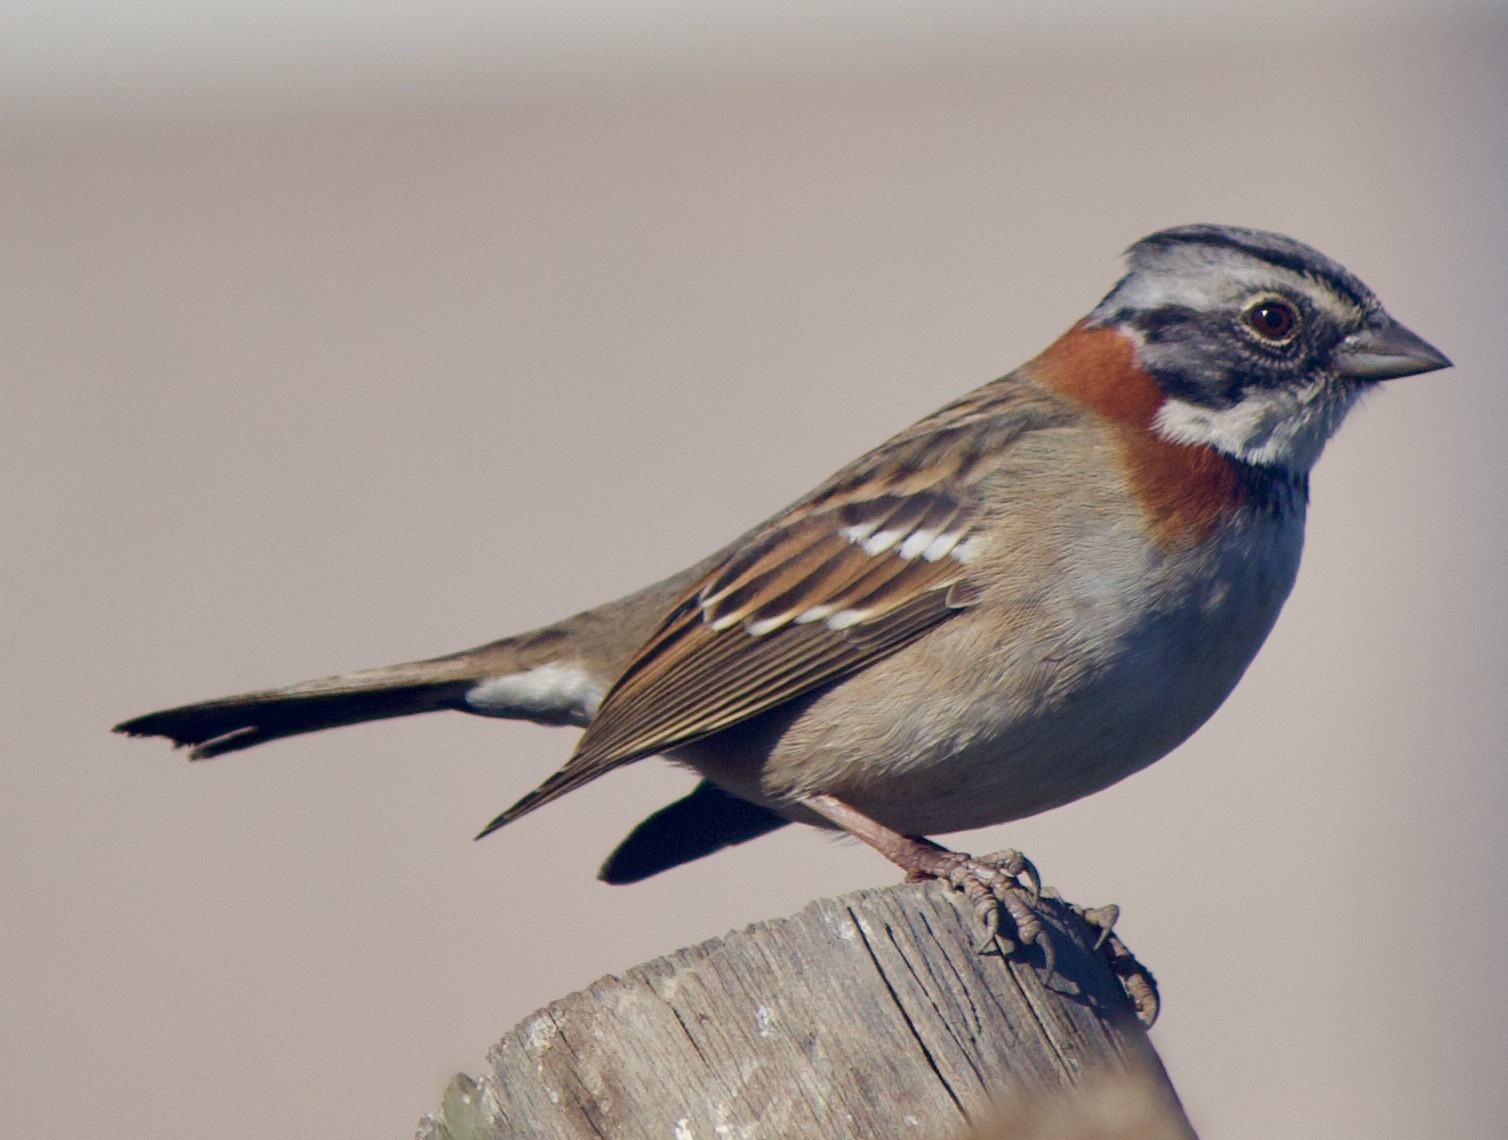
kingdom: Animalia
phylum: Chordata
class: Aves
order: Passeriformes
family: Passerellidae
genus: Zonotrichia
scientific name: Zonotrichia capensis
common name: Rufous-collared sparrow
